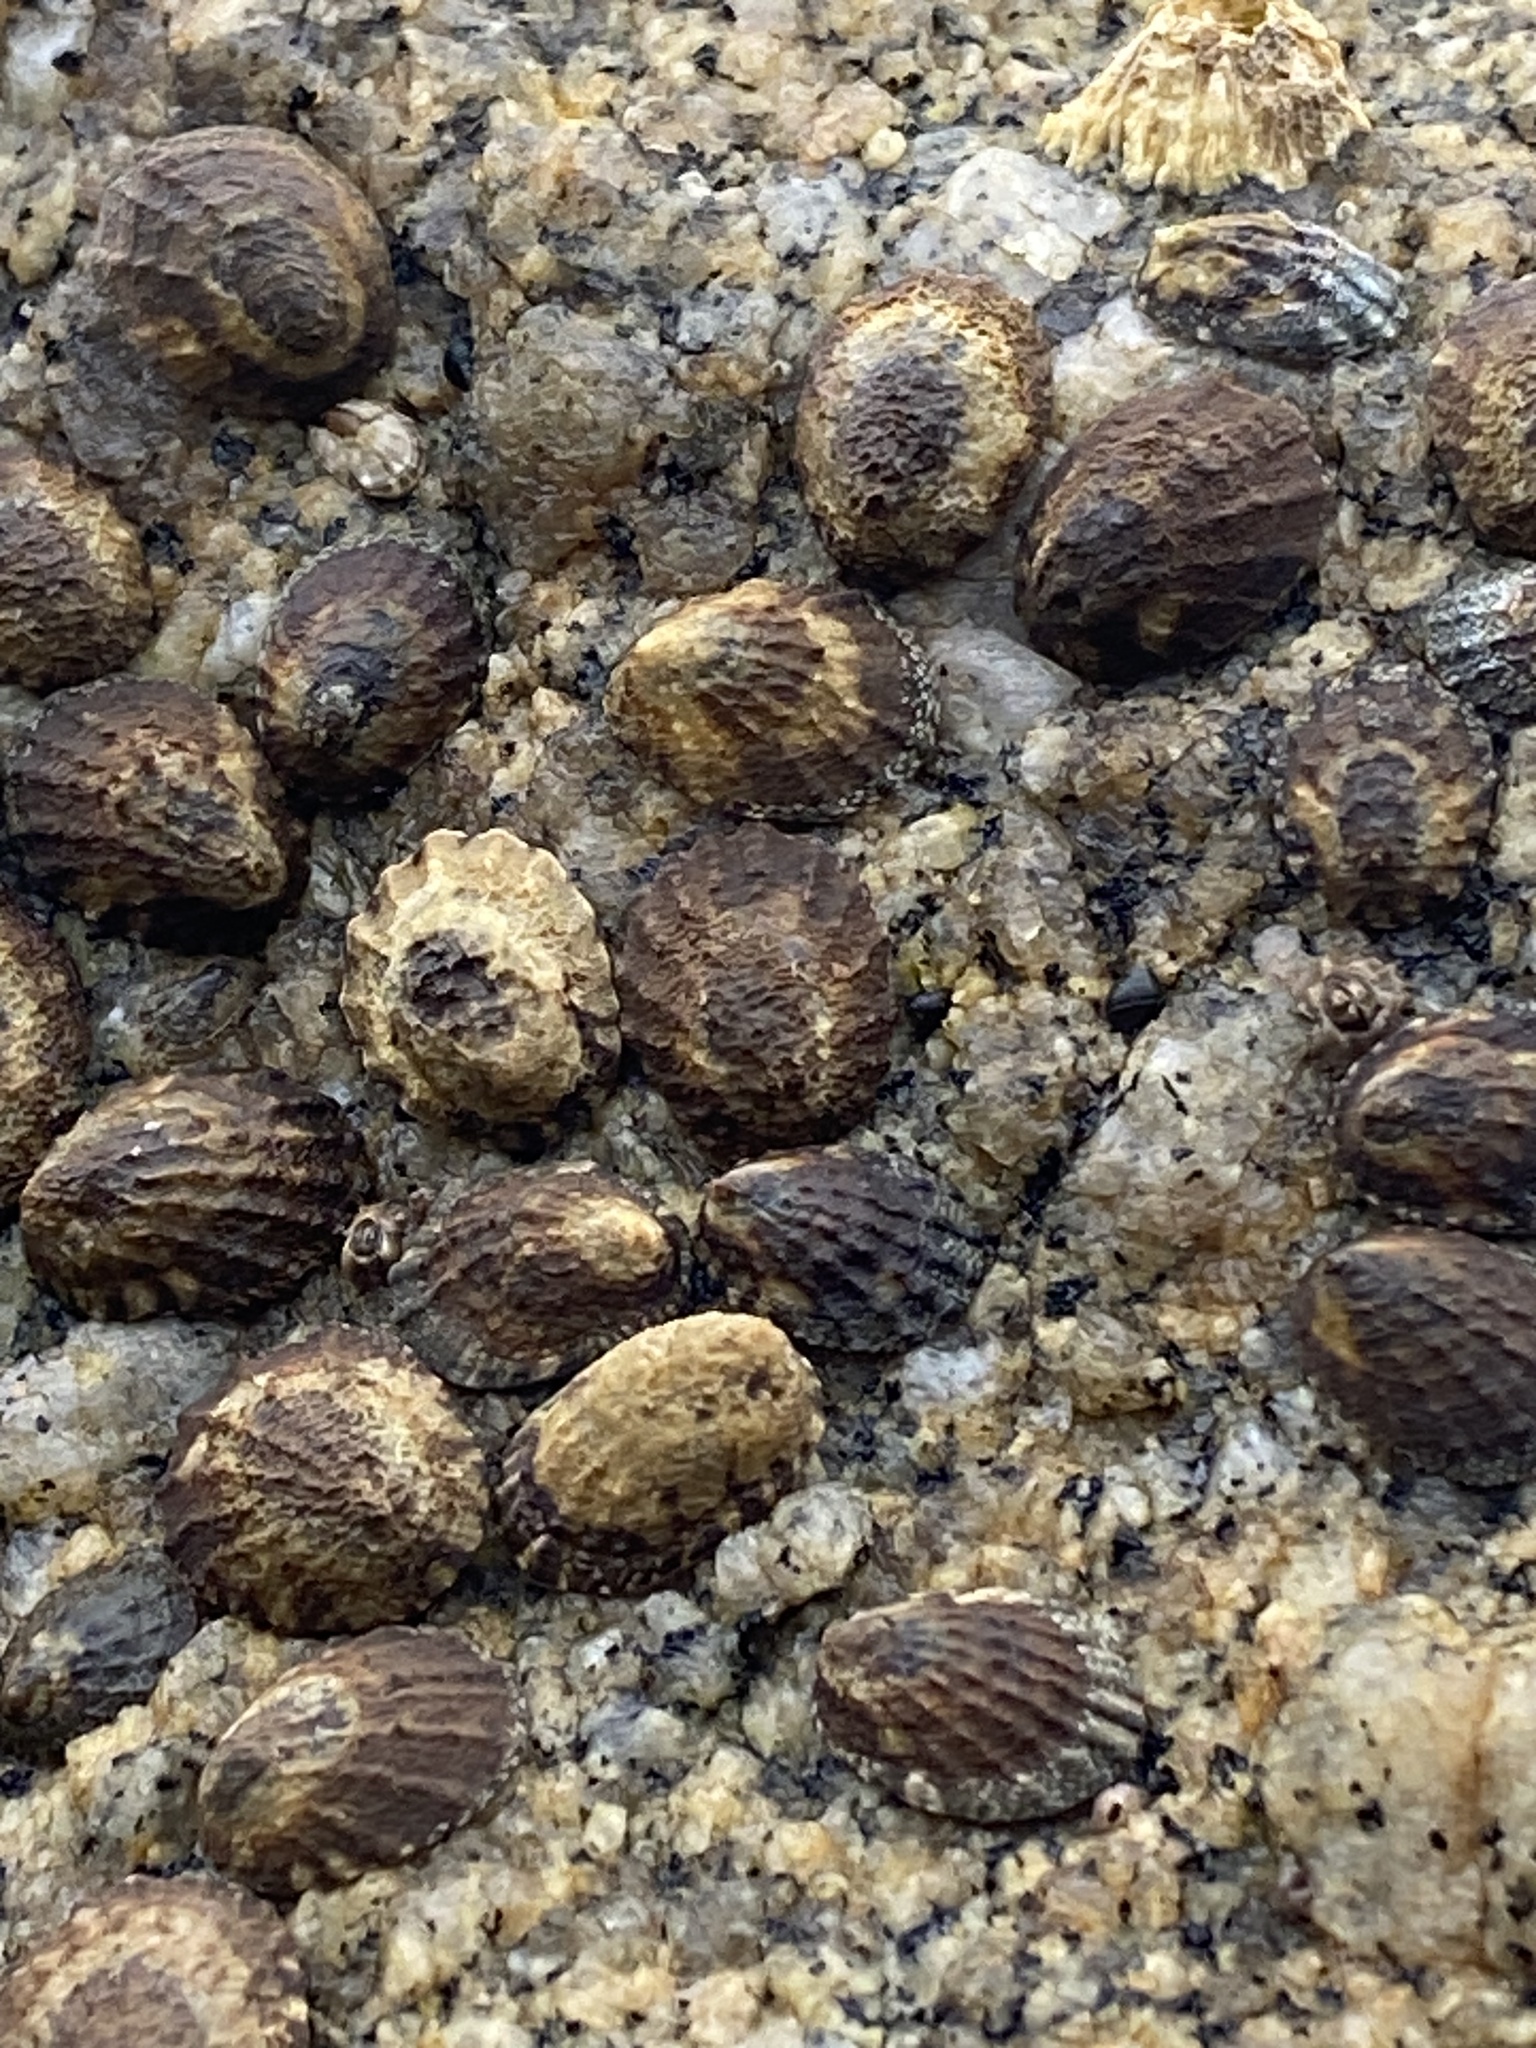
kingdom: Animalia
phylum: Mollusca
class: Gastropoda
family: Lottiidae
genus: Lottia
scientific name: Lottia digitalis
